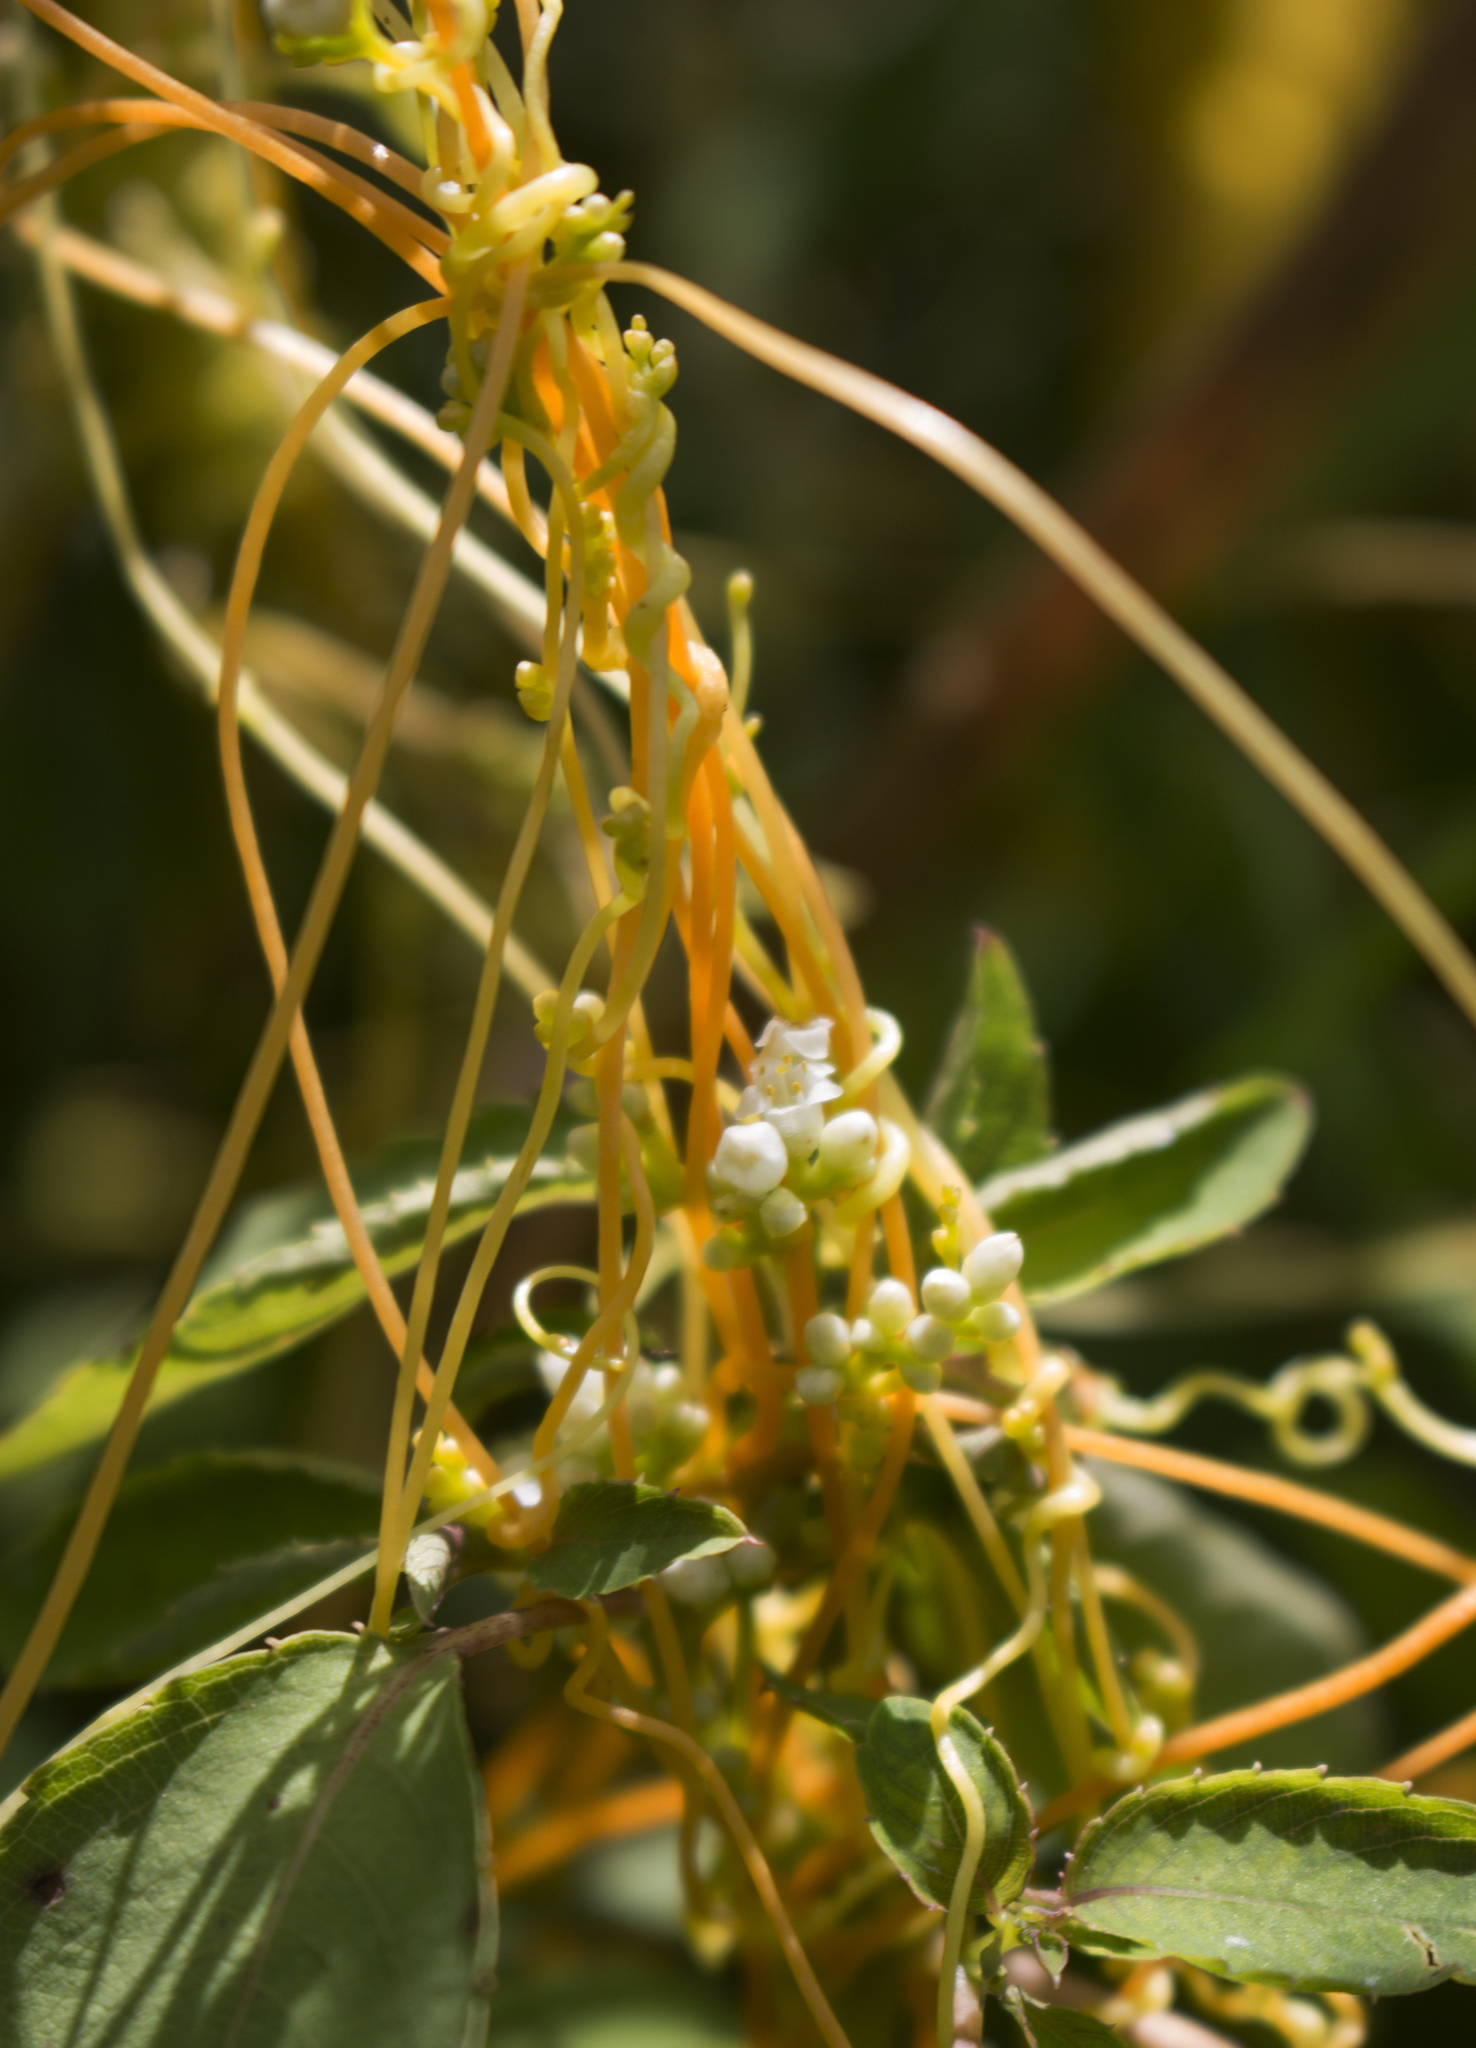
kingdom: Plantae
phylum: Tracheophyta
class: Magnoliopsida
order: Solanales
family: Convolvulaceae
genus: Cuscuta
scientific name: Cuscuta gronovii
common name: Common dodder
